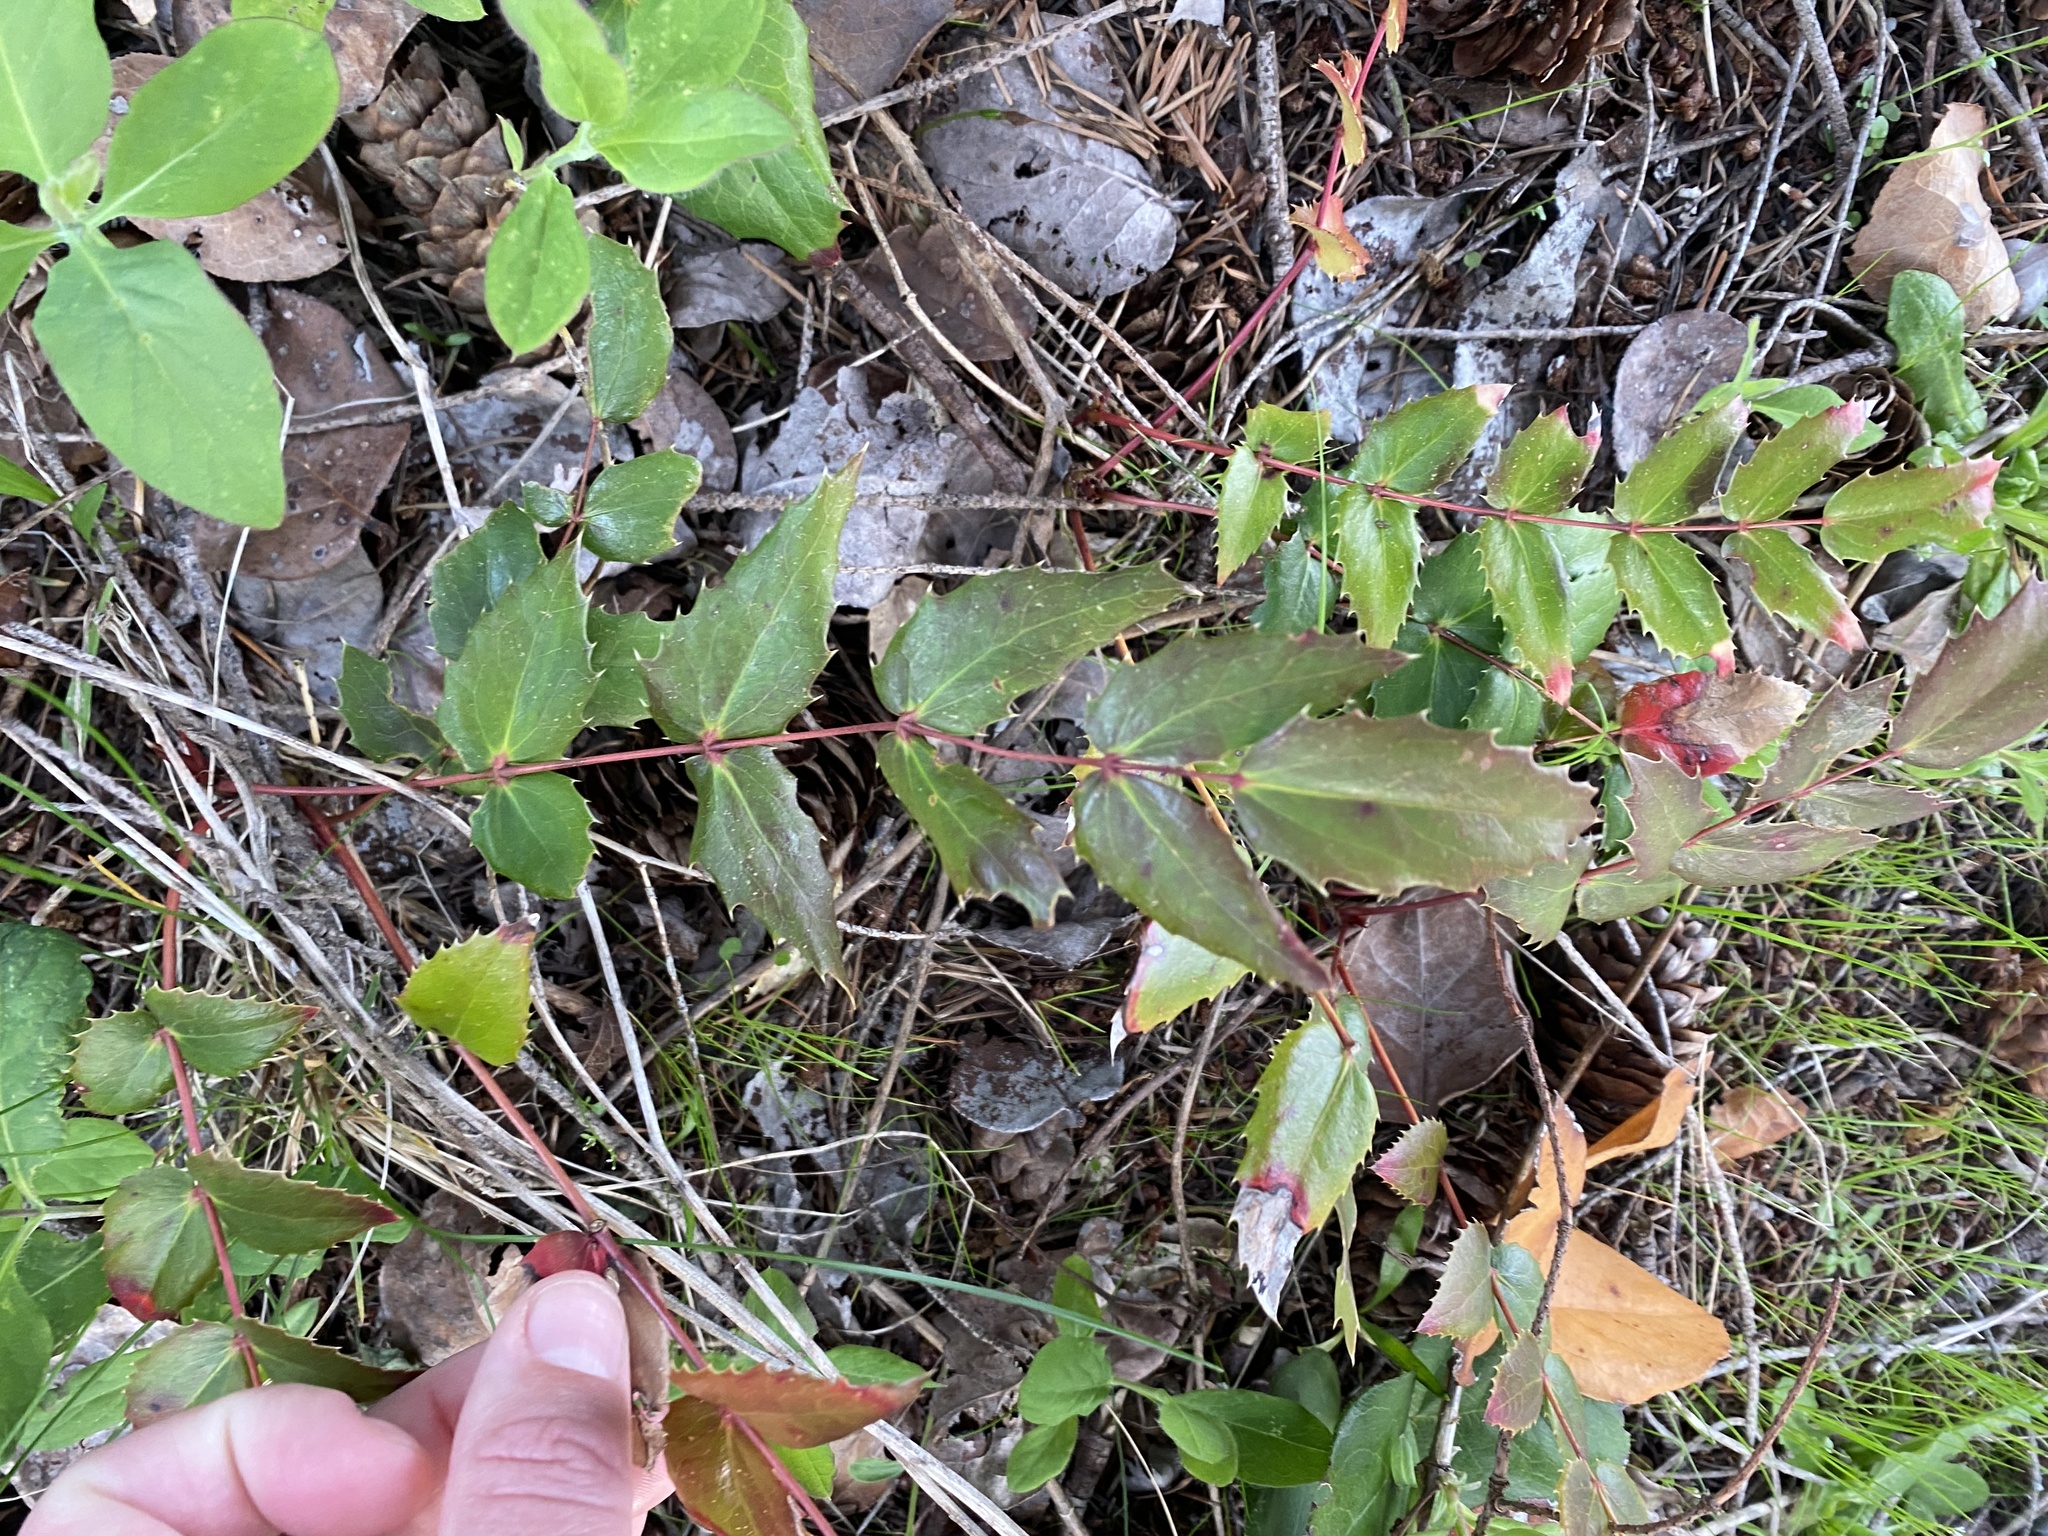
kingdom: Plantae
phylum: Tracheophyta
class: Magnoliopsida
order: Ranunculales
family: Berberidaceae
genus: Mahonia
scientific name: Mahonia nervosa
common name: Cascade oregon-grape
